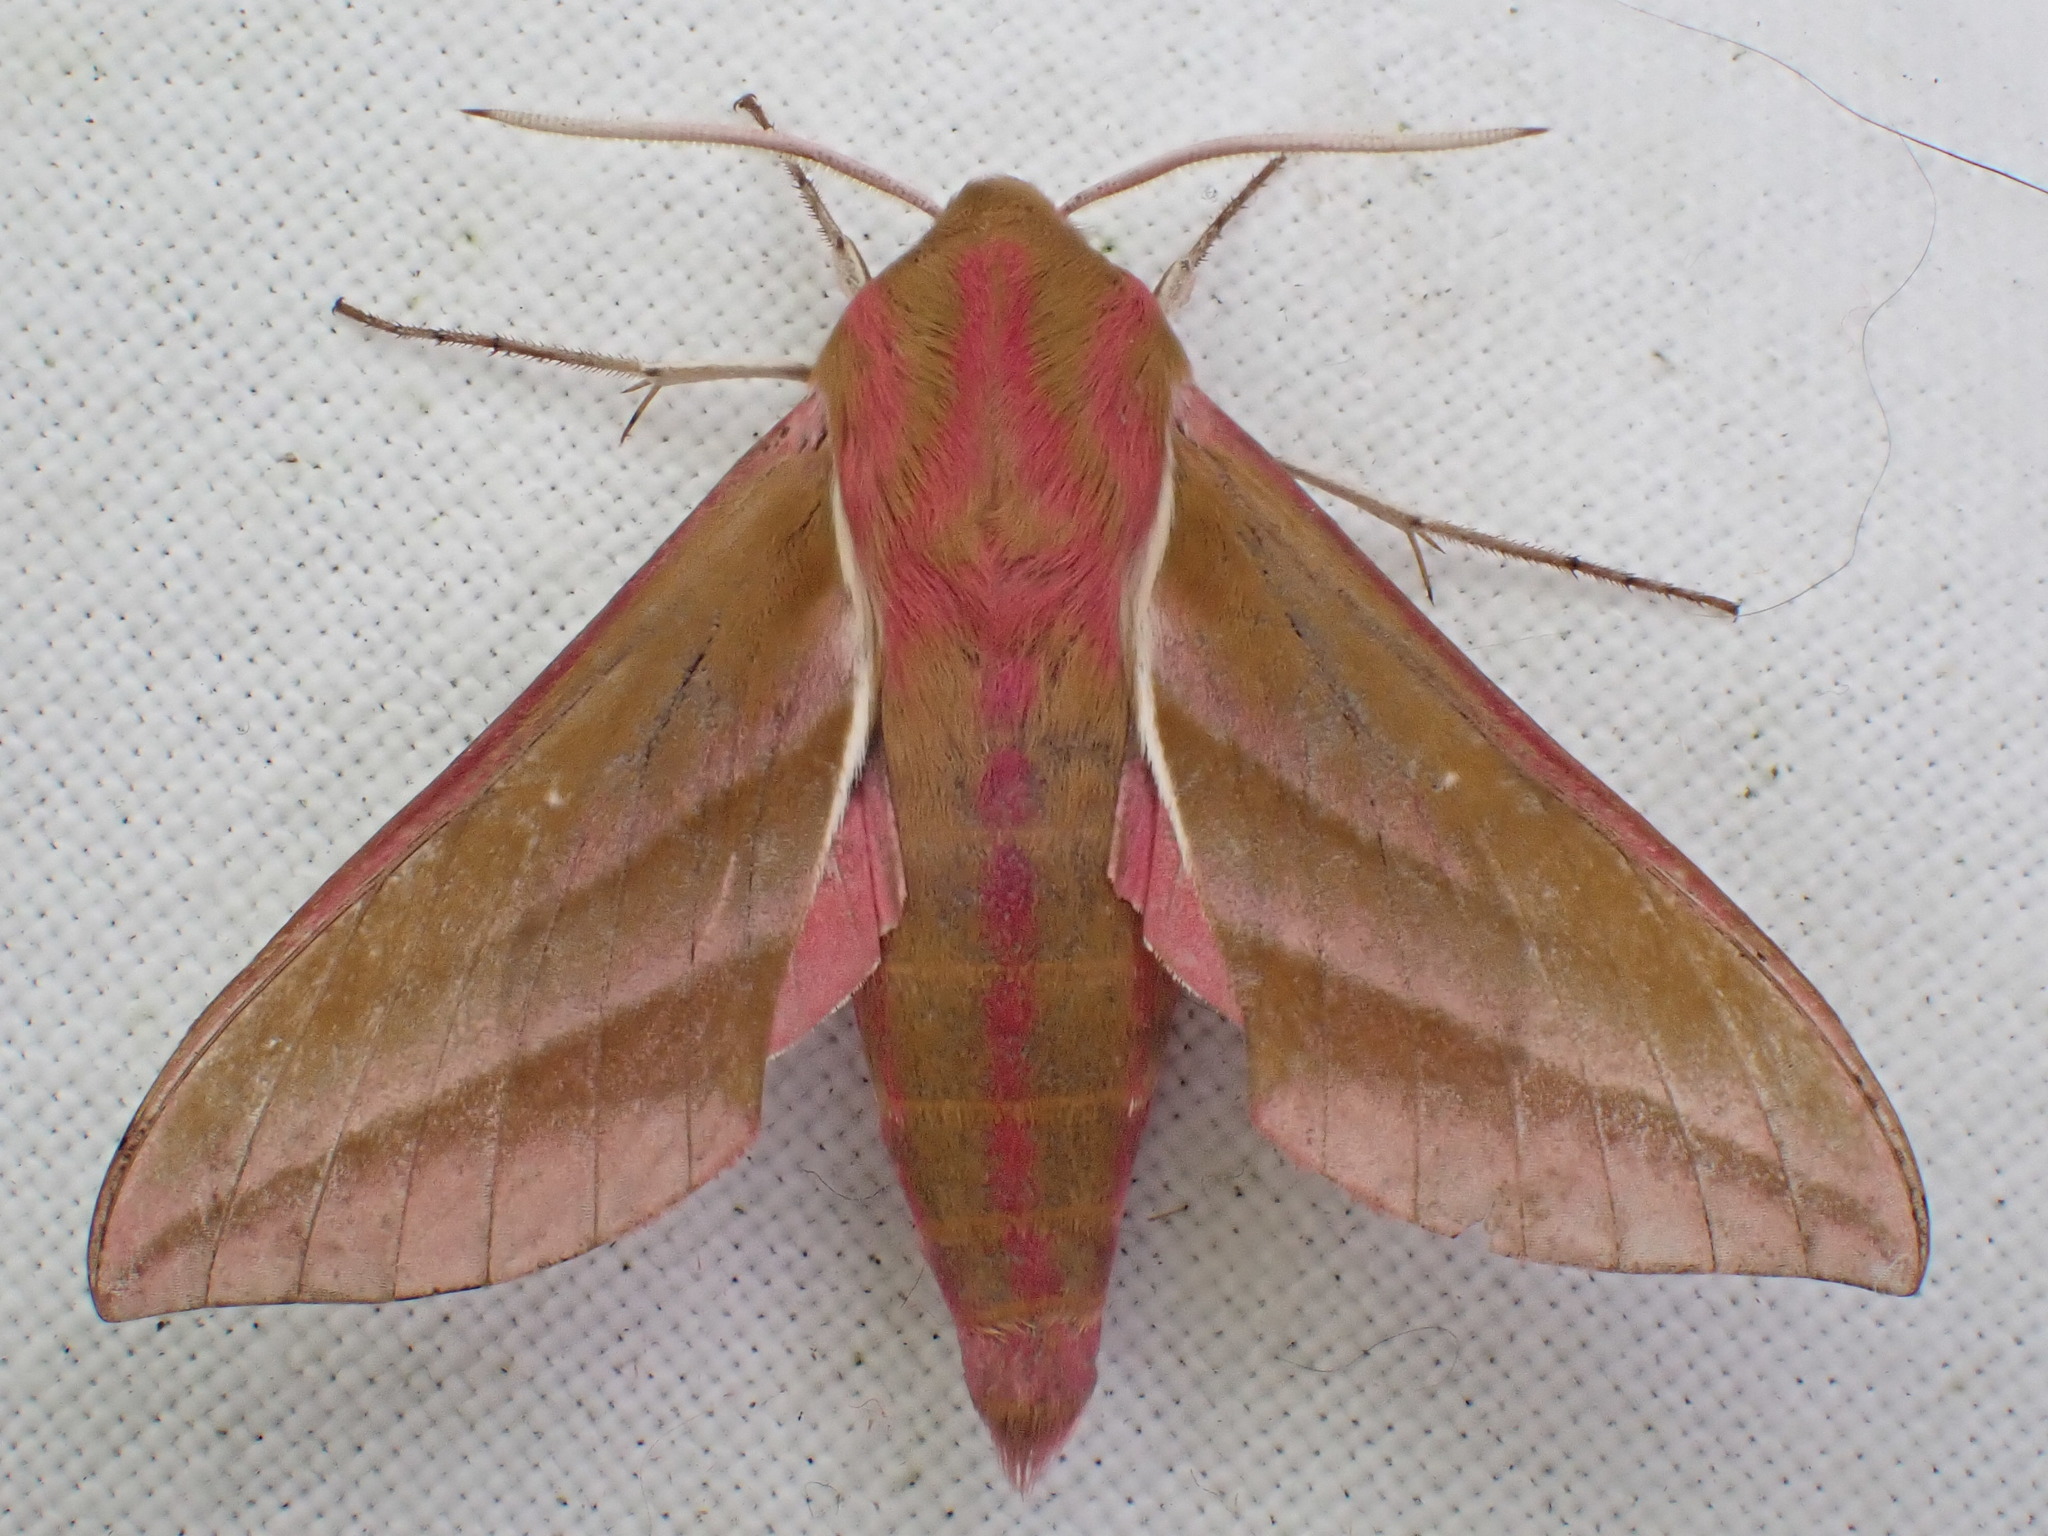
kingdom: Animalia
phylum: Arthropoda
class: Insecta
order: Lepidoptera
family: Sphingidae
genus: Deilephila
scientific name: Deilephila elpenor
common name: Elephant hawk-moth
